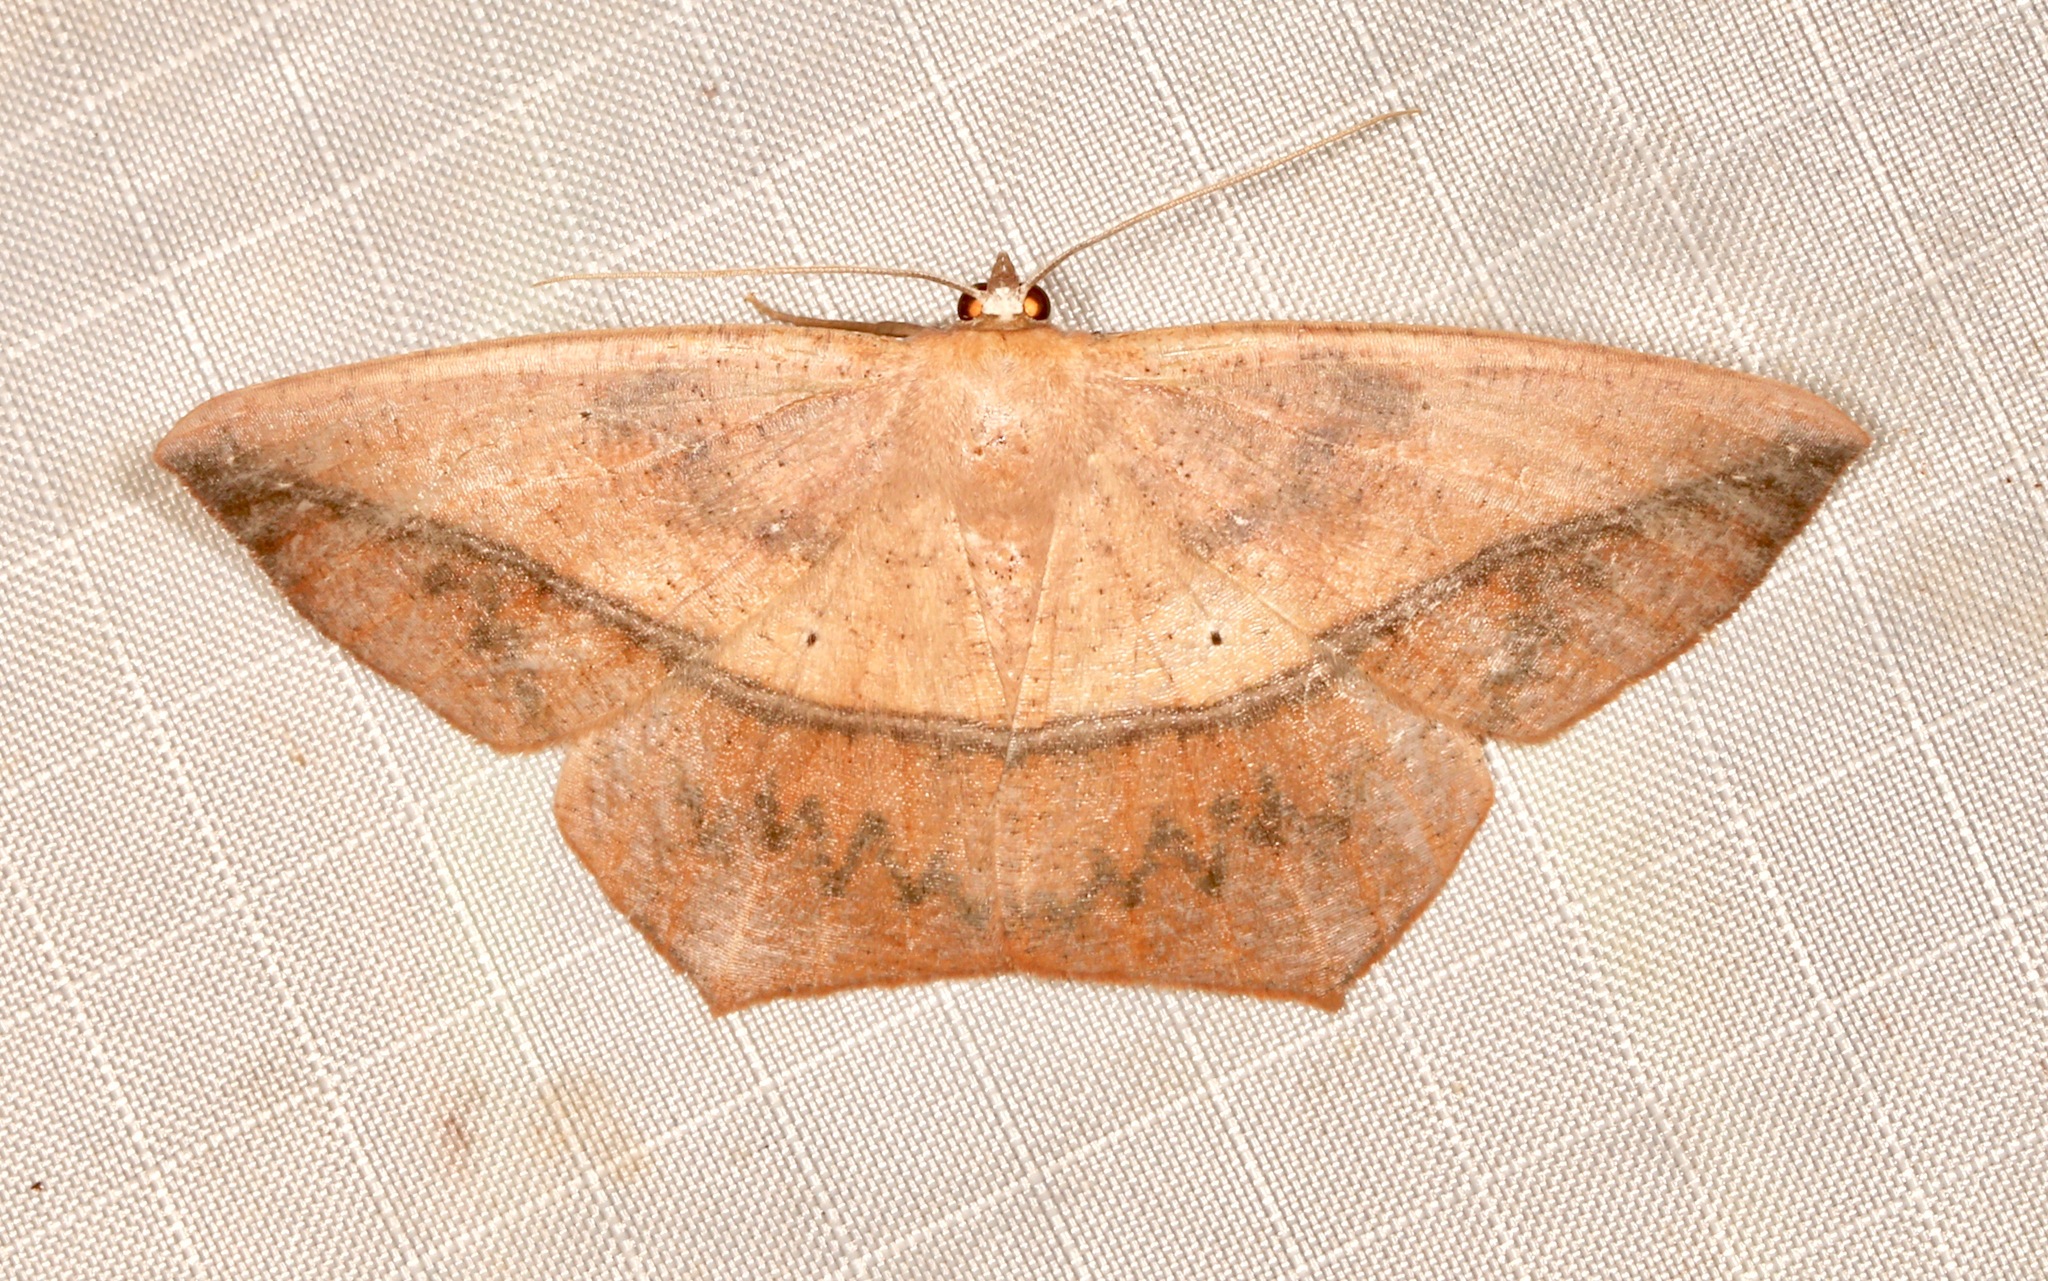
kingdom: Animalia
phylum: Arthropoda
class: Insecta
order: Lepidoptera
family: Geometridae
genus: Prochoerodes
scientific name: Prochoerodes lineola
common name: Large maple spanworm
